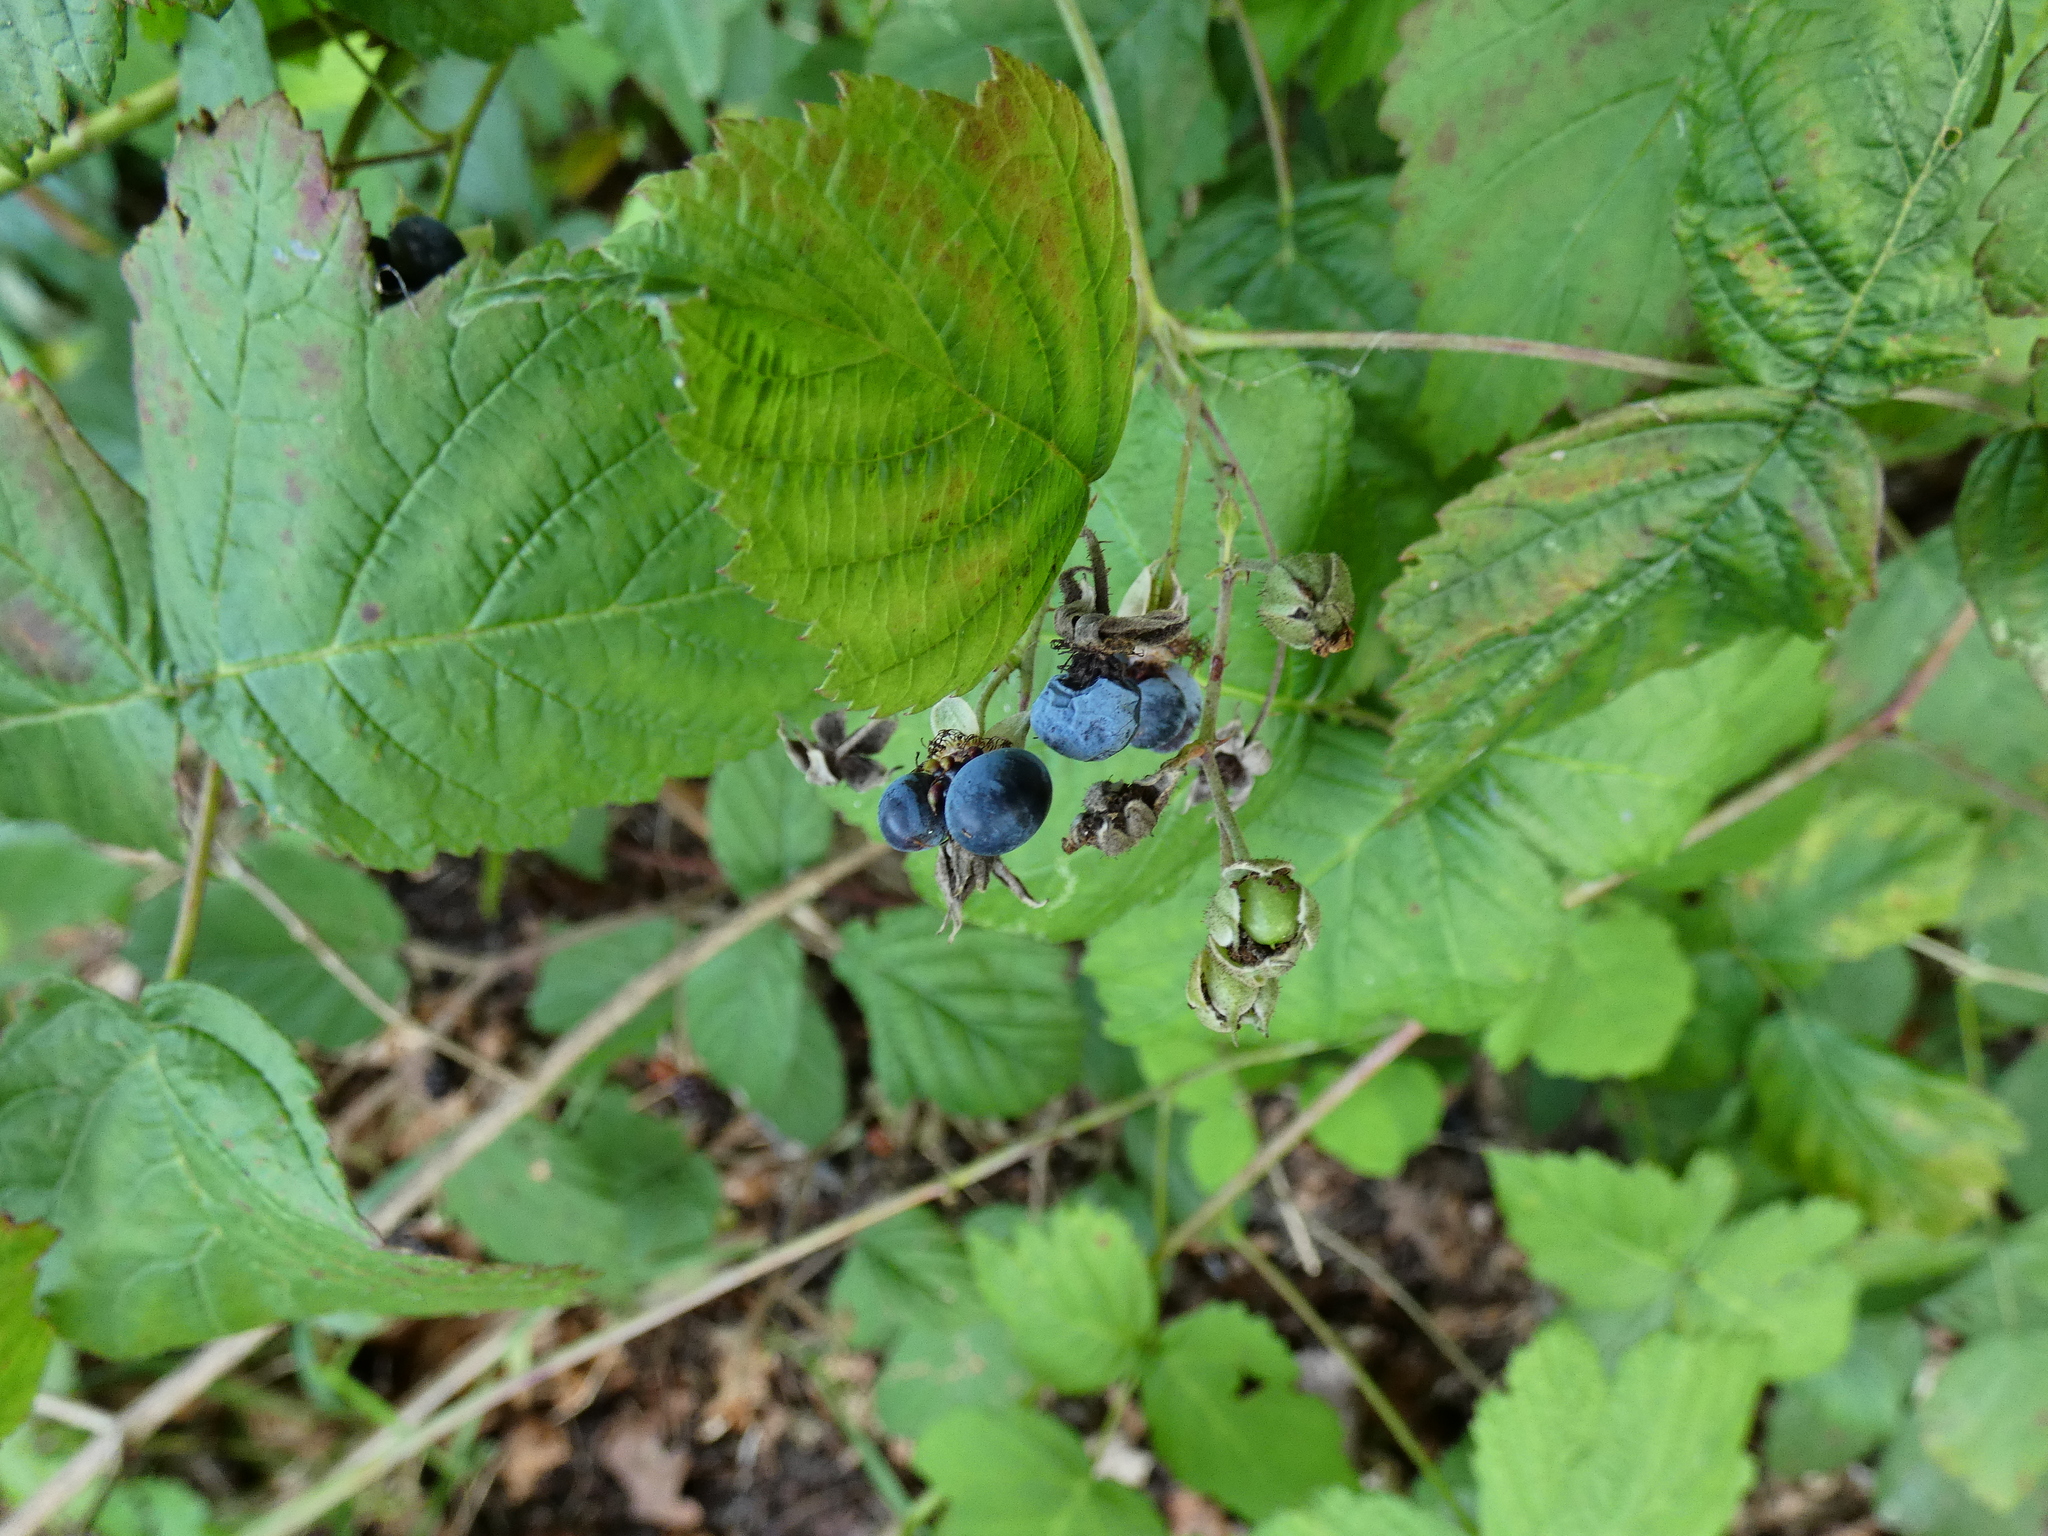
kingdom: Plantae
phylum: Tracheophyta
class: Magnoliopsida
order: Rosales
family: Rosaceae
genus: Rubus
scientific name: Rubus caesius
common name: Dewberry
